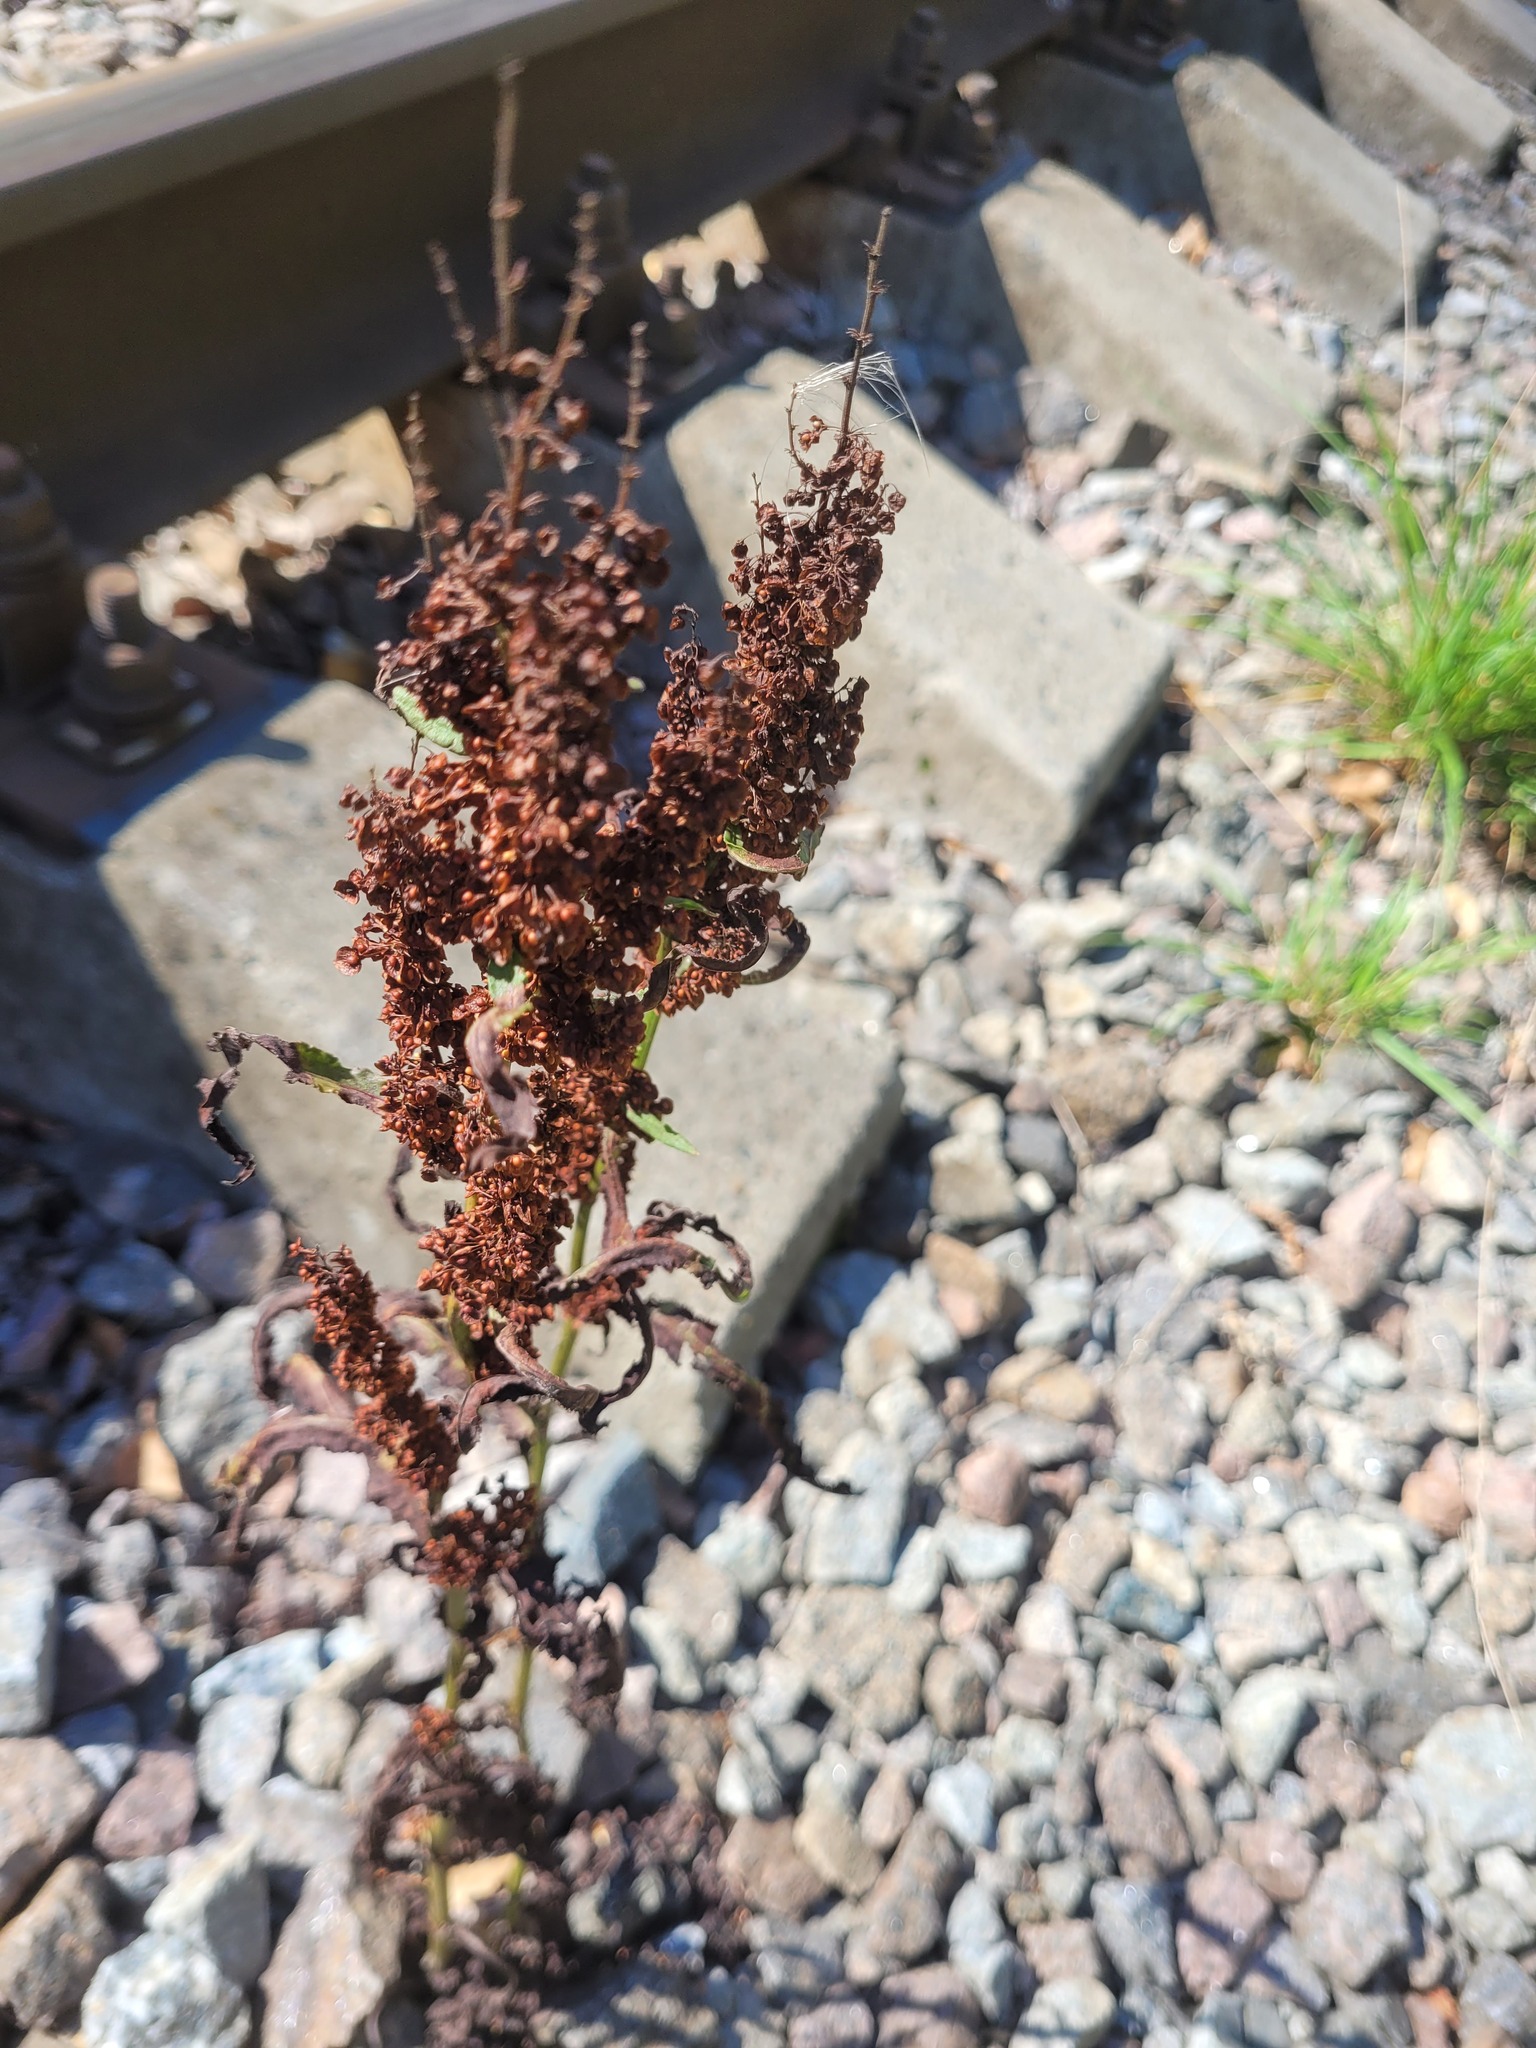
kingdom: Plantae
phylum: Tracheophyta
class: Magnoliopsida
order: Caryophyllales
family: Polygonaceae
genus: Rumex
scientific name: Rumex crispus
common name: Curled dock
